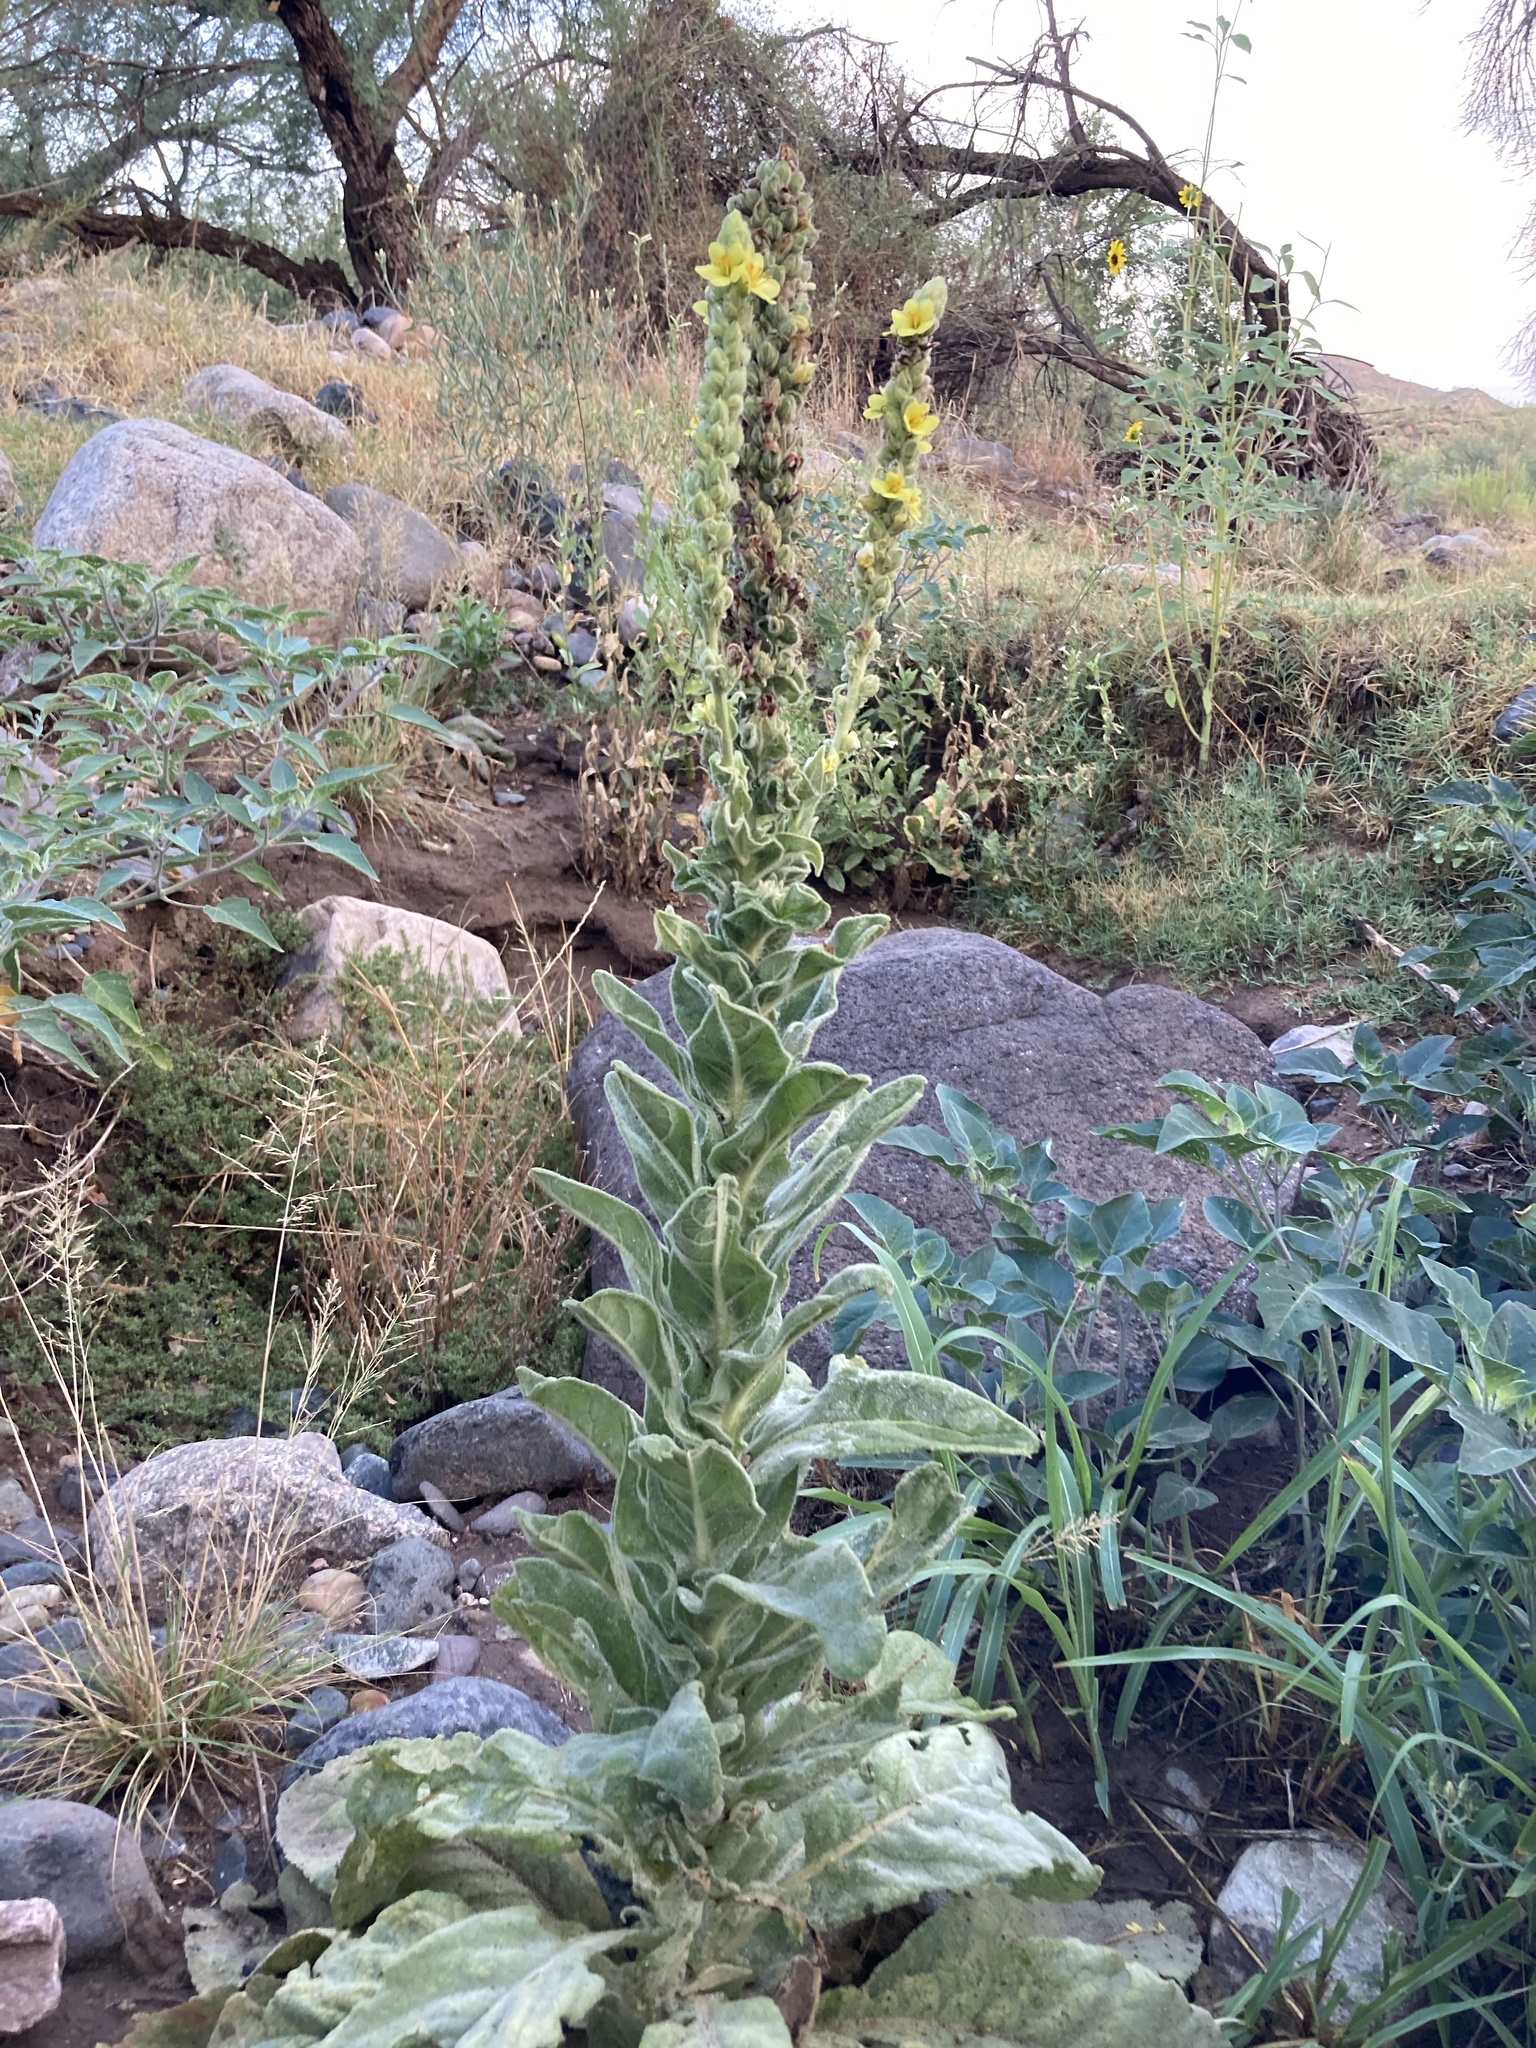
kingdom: Plantae
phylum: Tracheophyta
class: Magnoliopsida
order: Lamiales
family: Scrophulariaceae
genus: Verbascum
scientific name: Verbascum thapsus
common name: Common mullein
